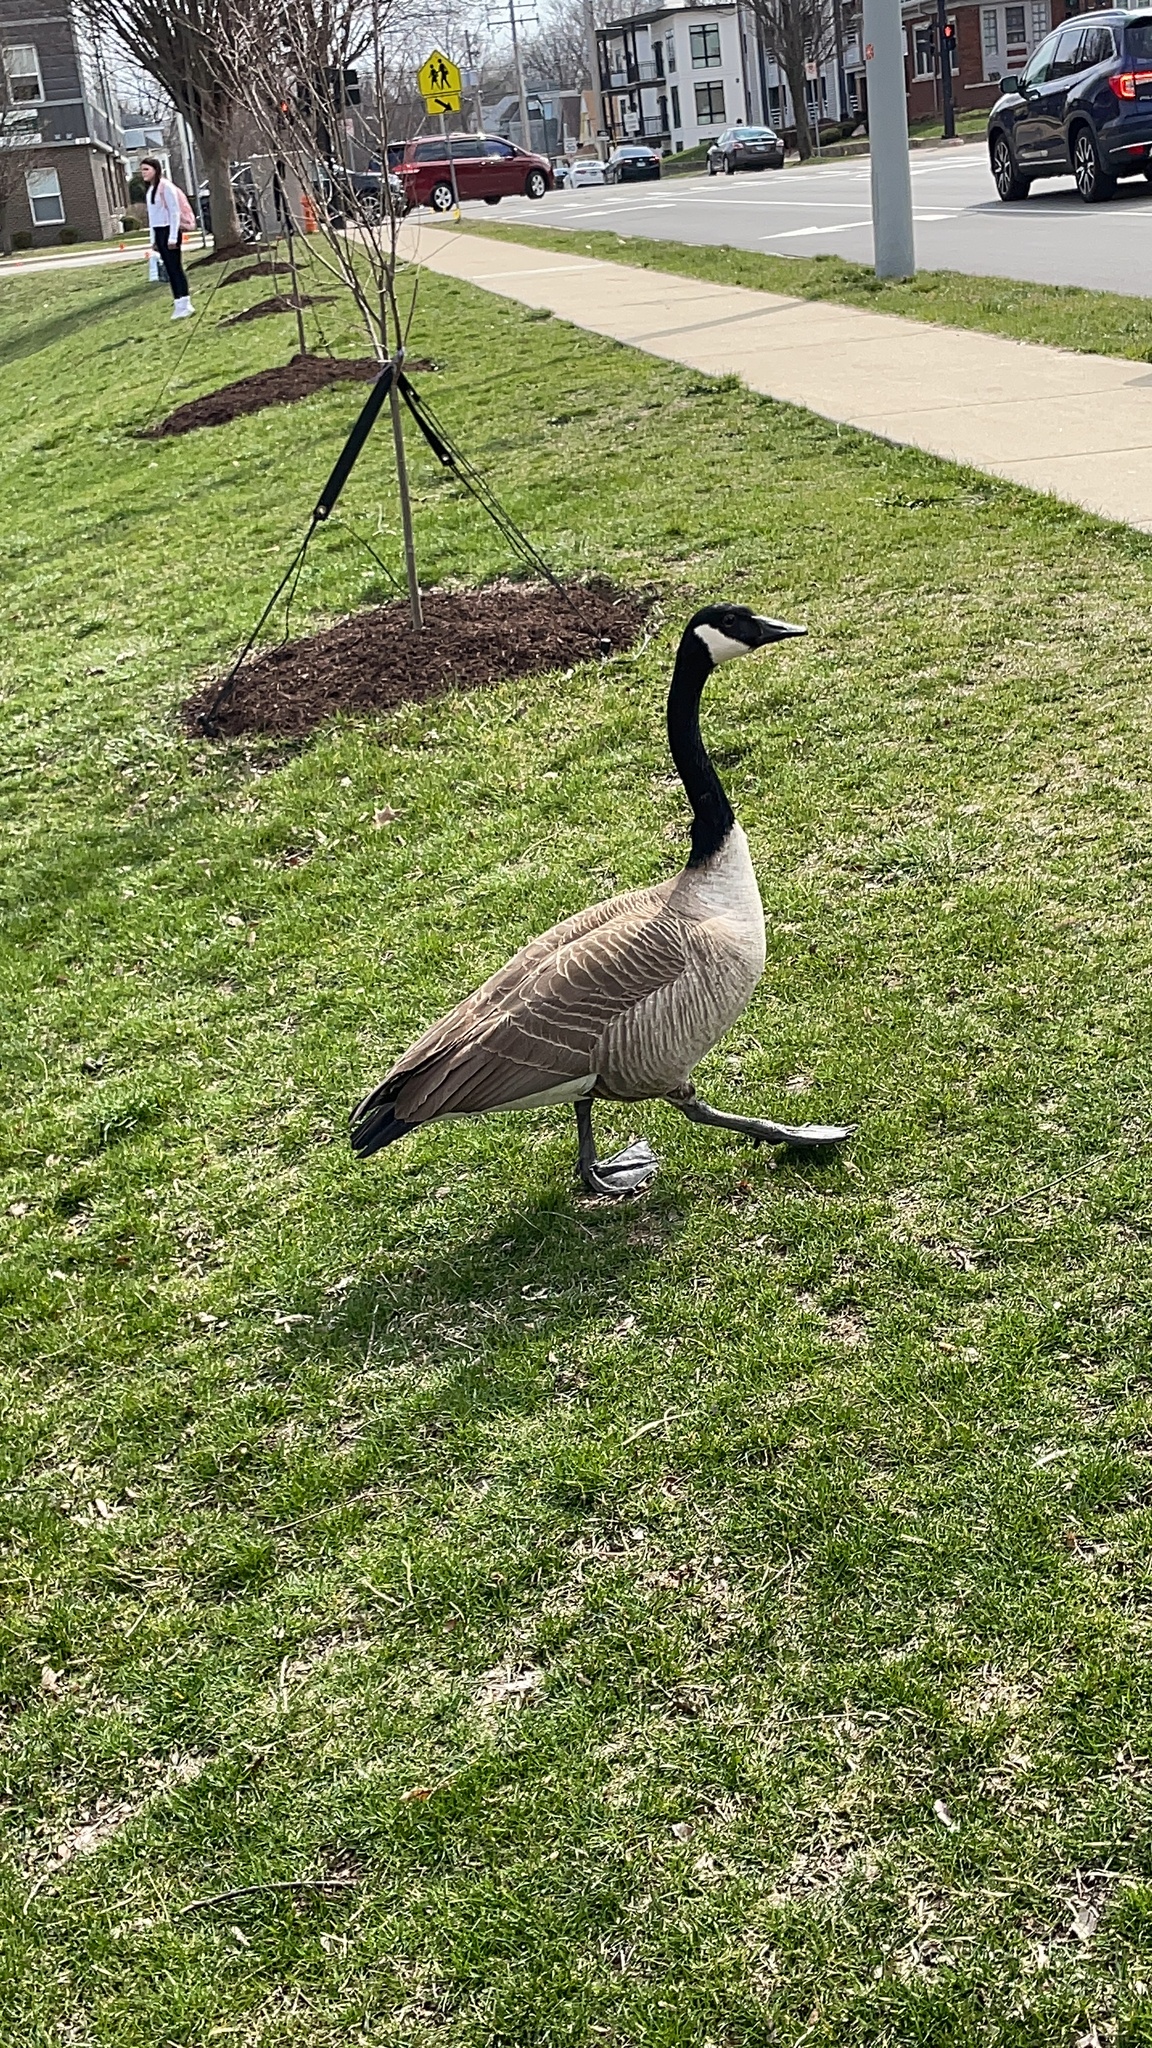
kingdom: Animalia
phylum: Chordata
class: Aves
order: Anseriformes
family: Anatidae
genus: Branta
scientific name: Branta canadensis
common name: Canada goose
